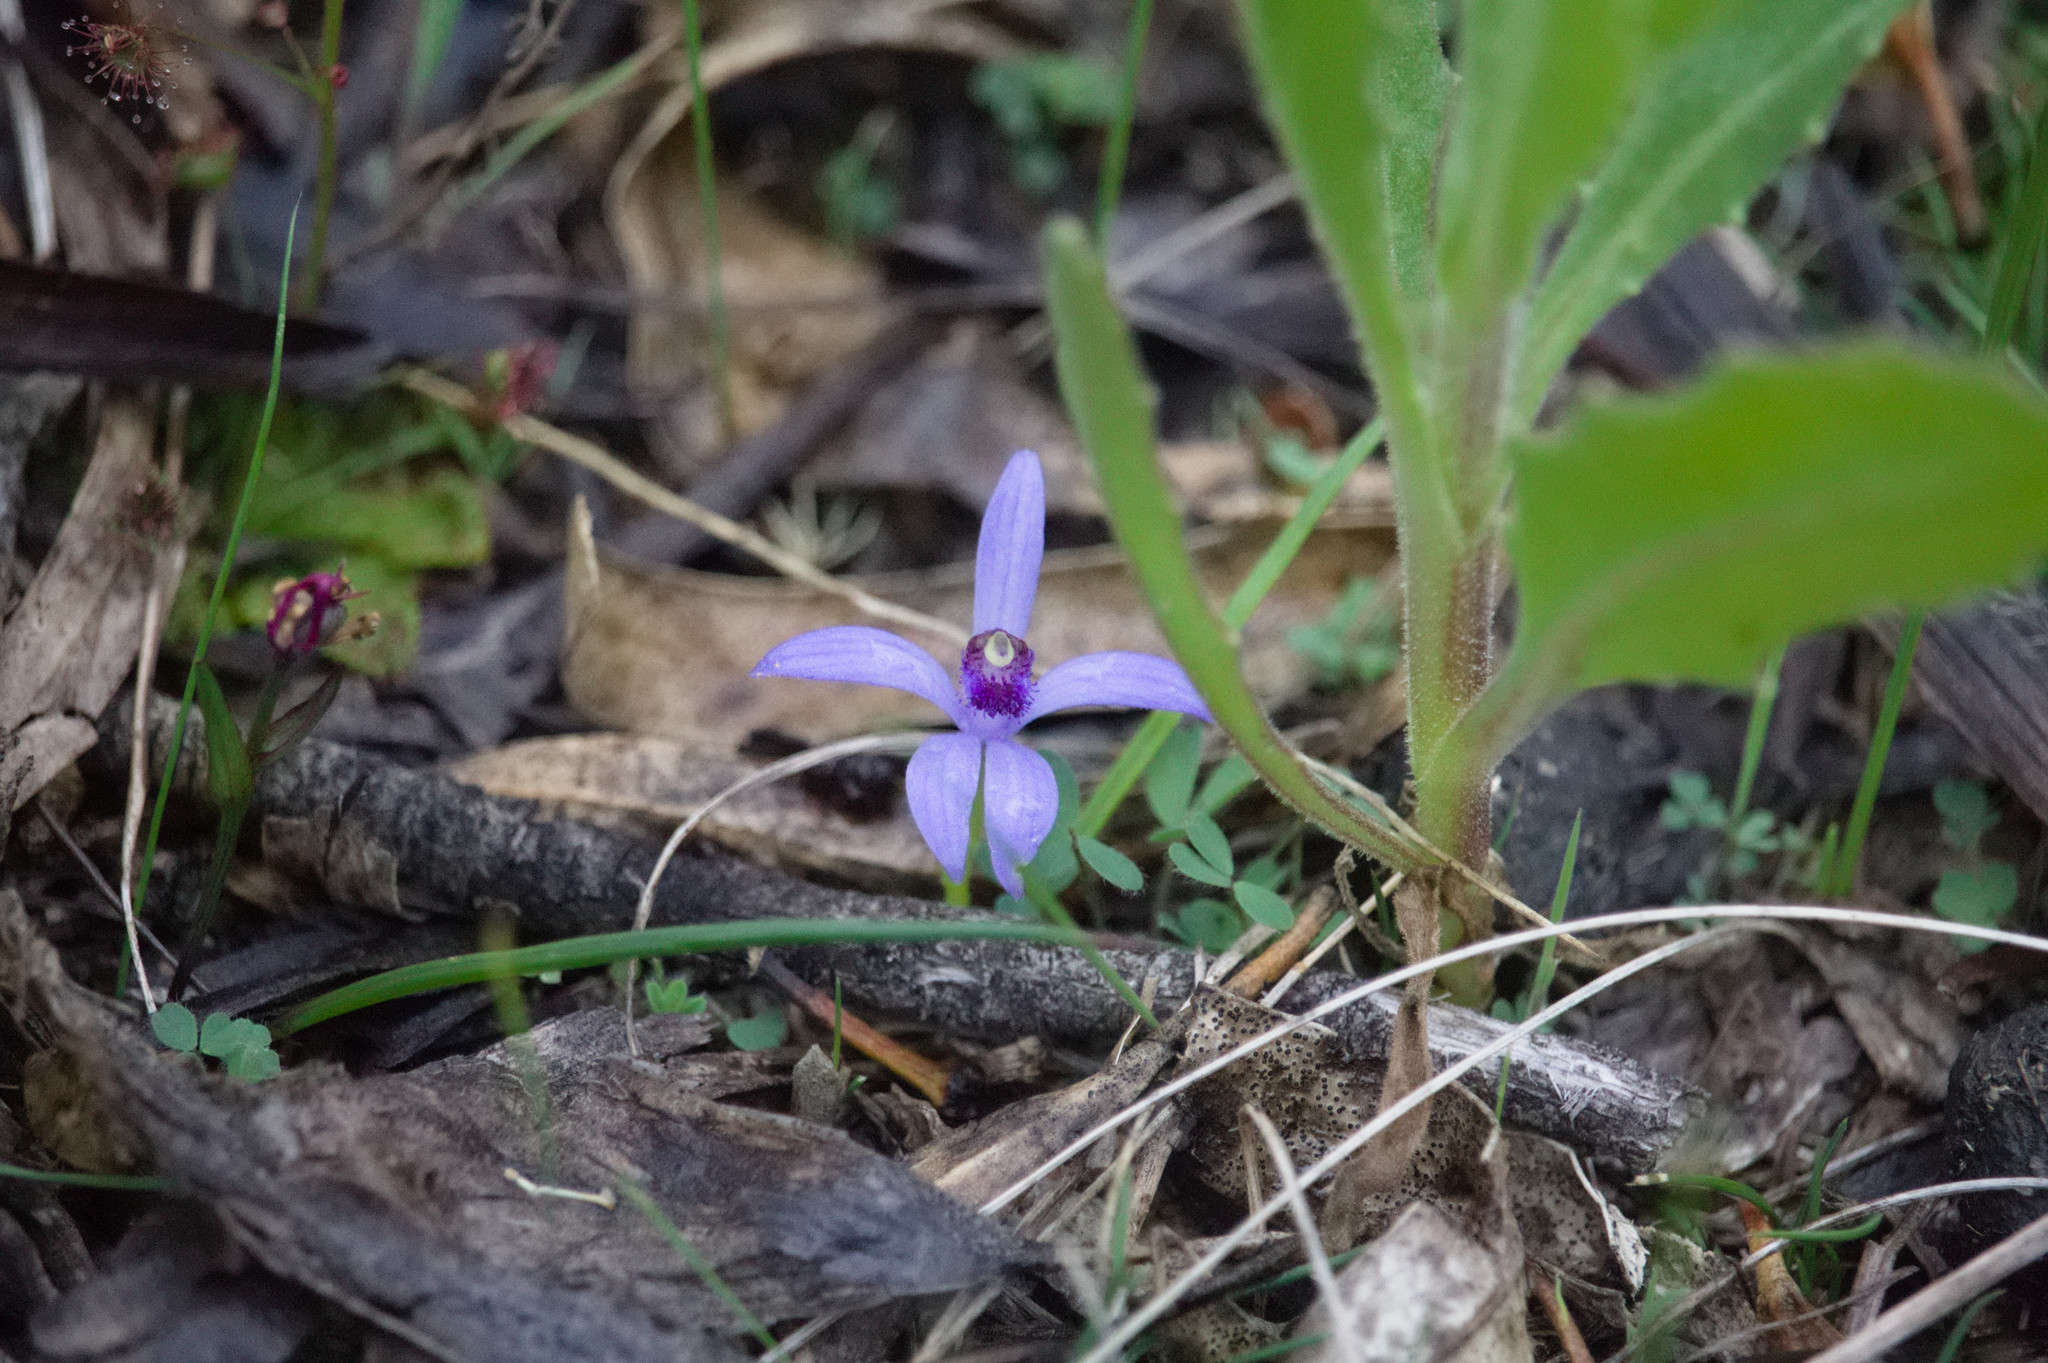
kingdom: Plantae
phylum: Tracheophyta
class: Liliopsida
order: Asparagales
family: Orchidaceae
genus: Pheladenia
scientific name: Pheladenia deformis
